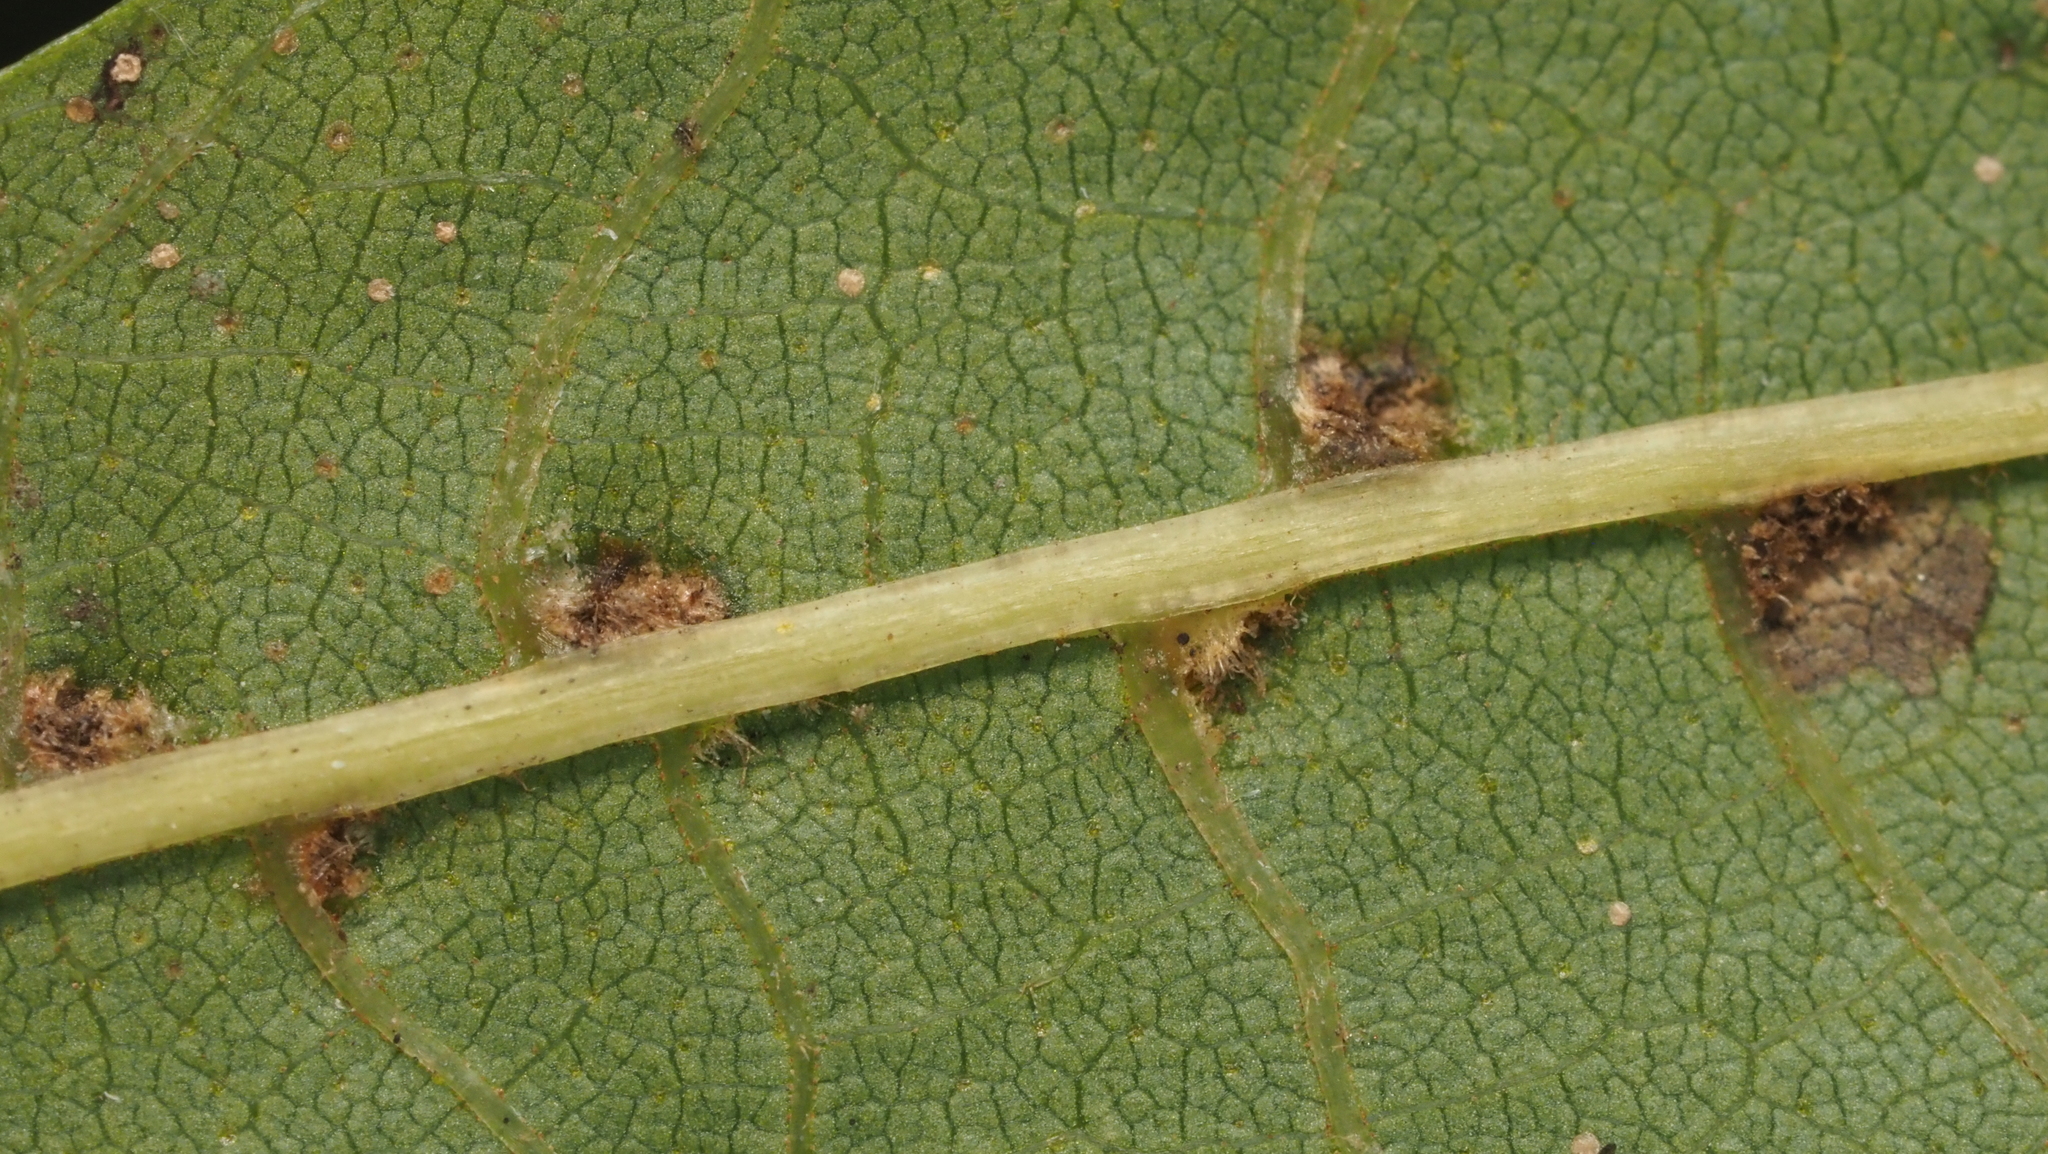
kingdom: Animalia
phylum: Arthropoda
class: Arachnida
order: Trombidiformes
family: Eriophyidae
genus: Aceria
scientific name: Aceria
